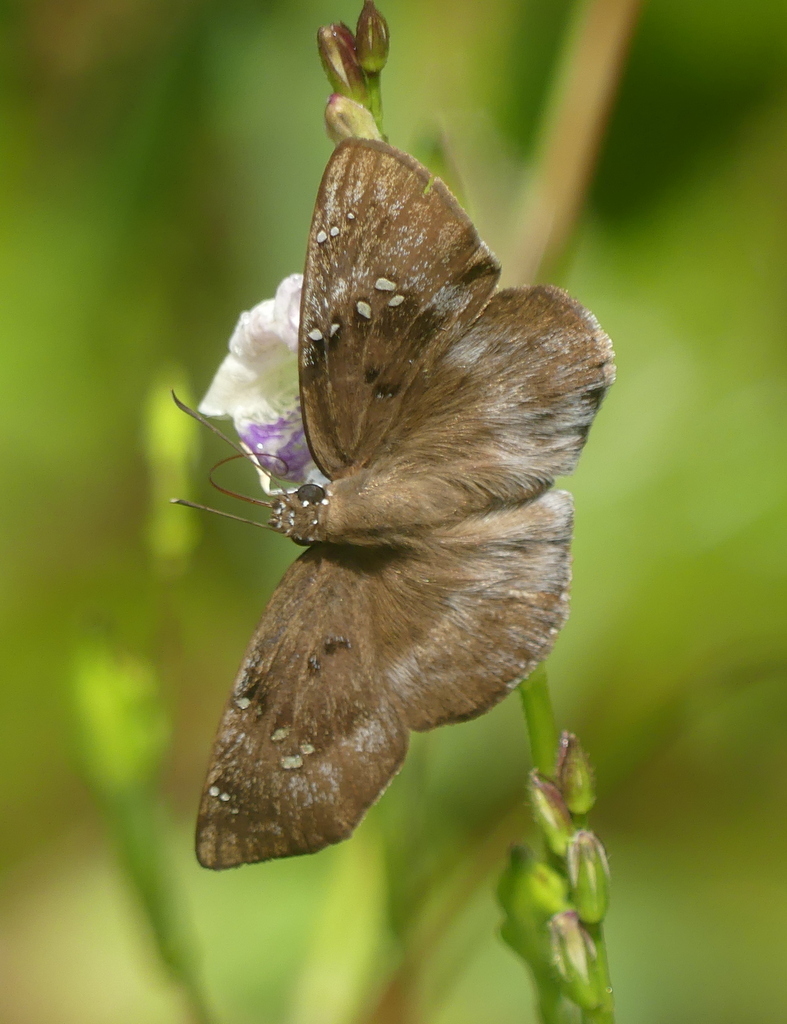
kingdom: Animalia
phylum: Arthropoda
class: Insecta
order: Lepidoptera
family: Hesperiidae
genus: Tagiades
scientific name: Tagiades flesus
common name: Clouded flat
